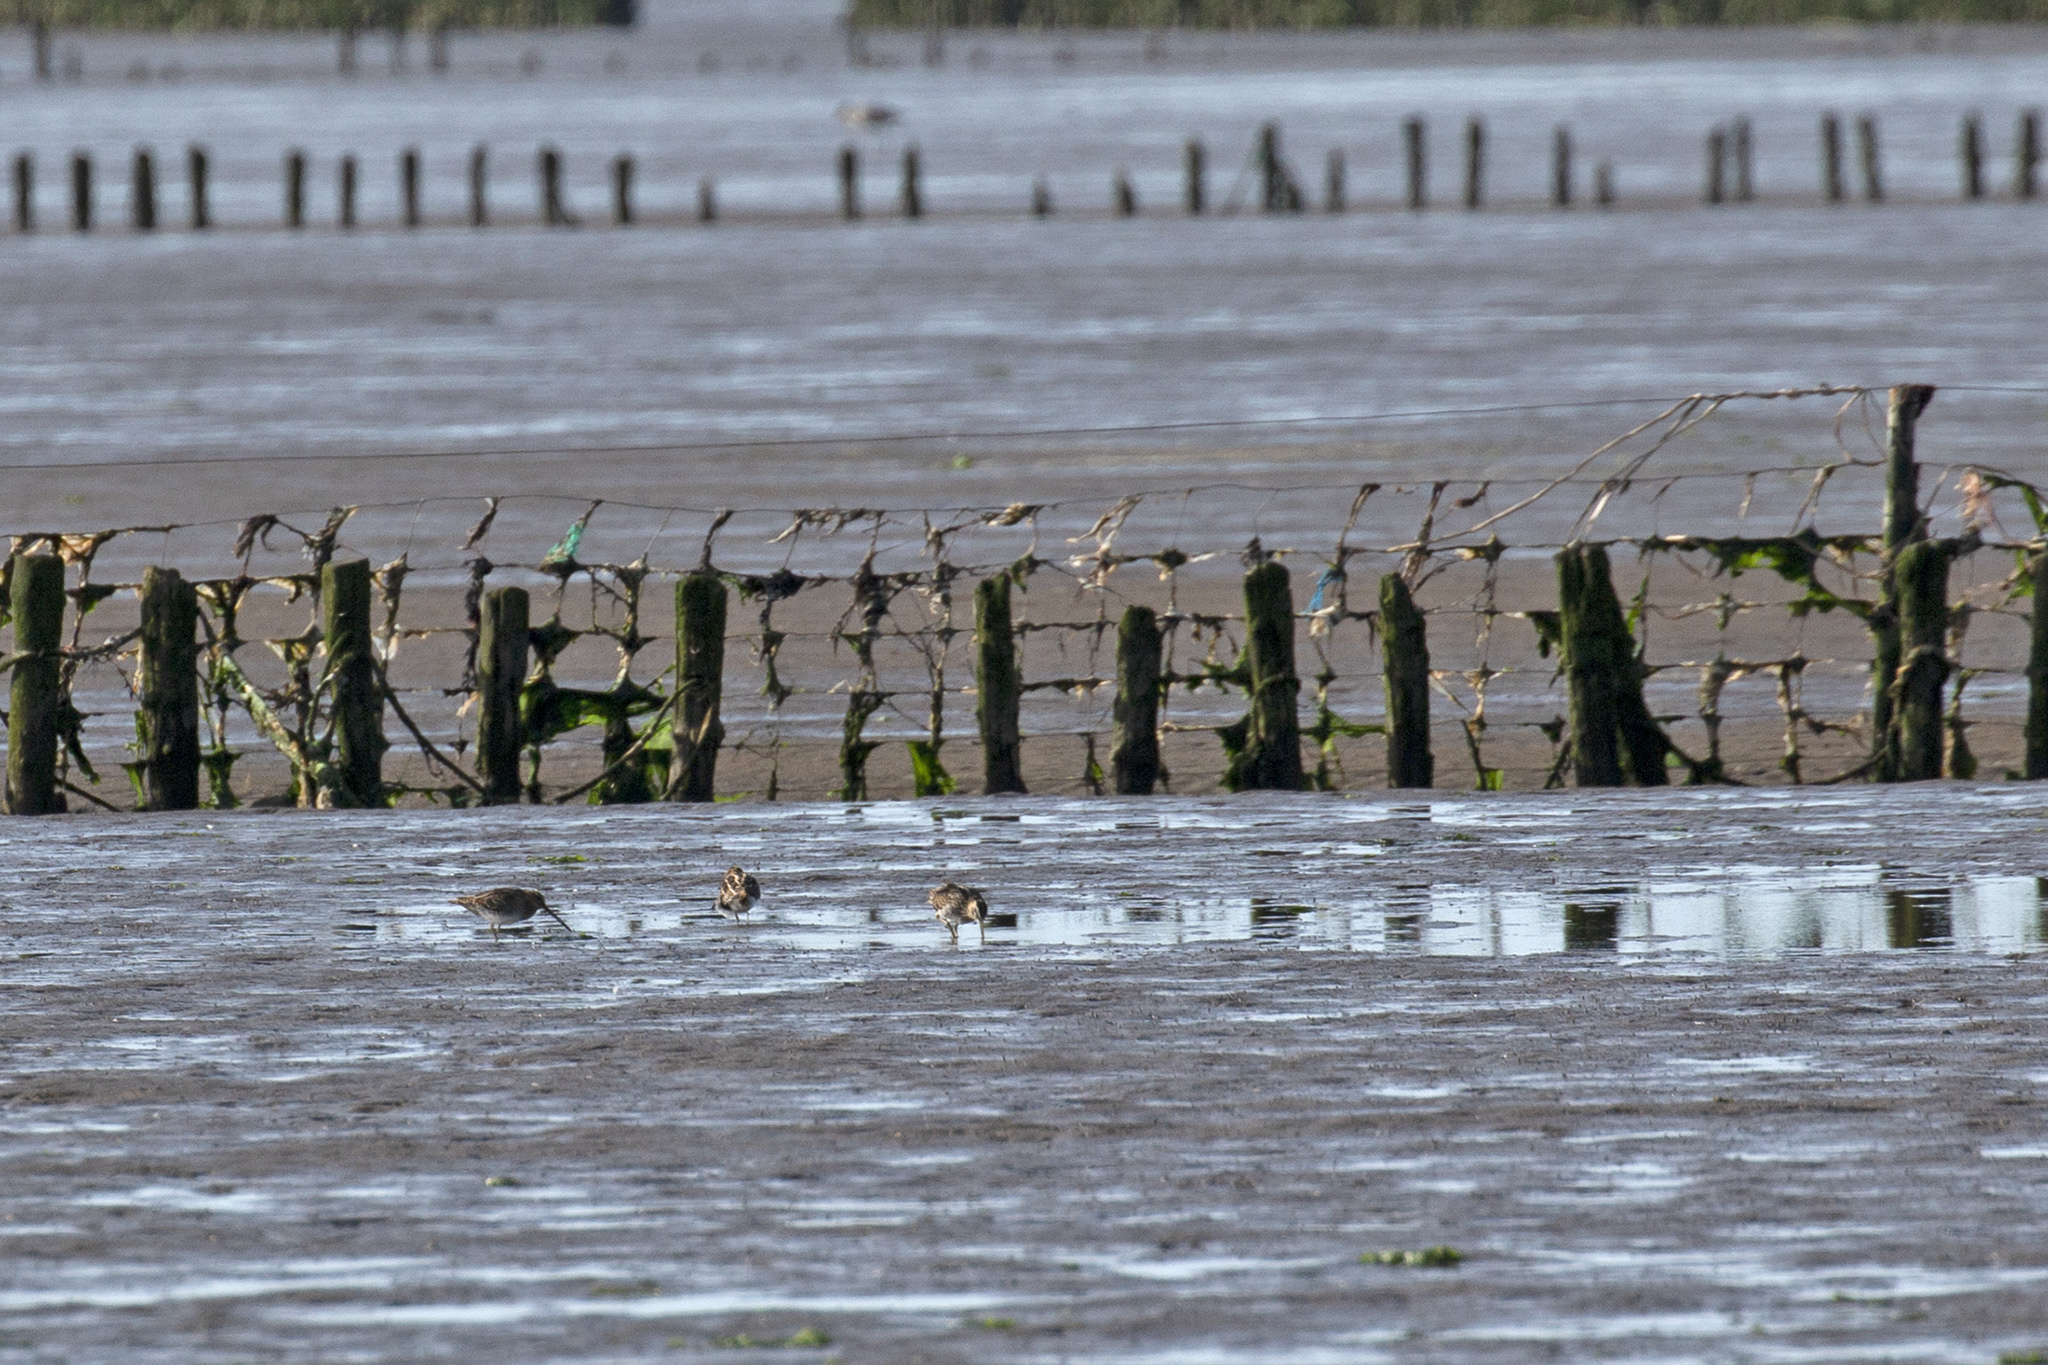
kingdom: Animalia
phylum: Chordata
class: Aves
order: Charadriiformes
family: Scolopacidae
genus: Gallinago
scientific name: Gallinago gallinago
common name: Common snipe
